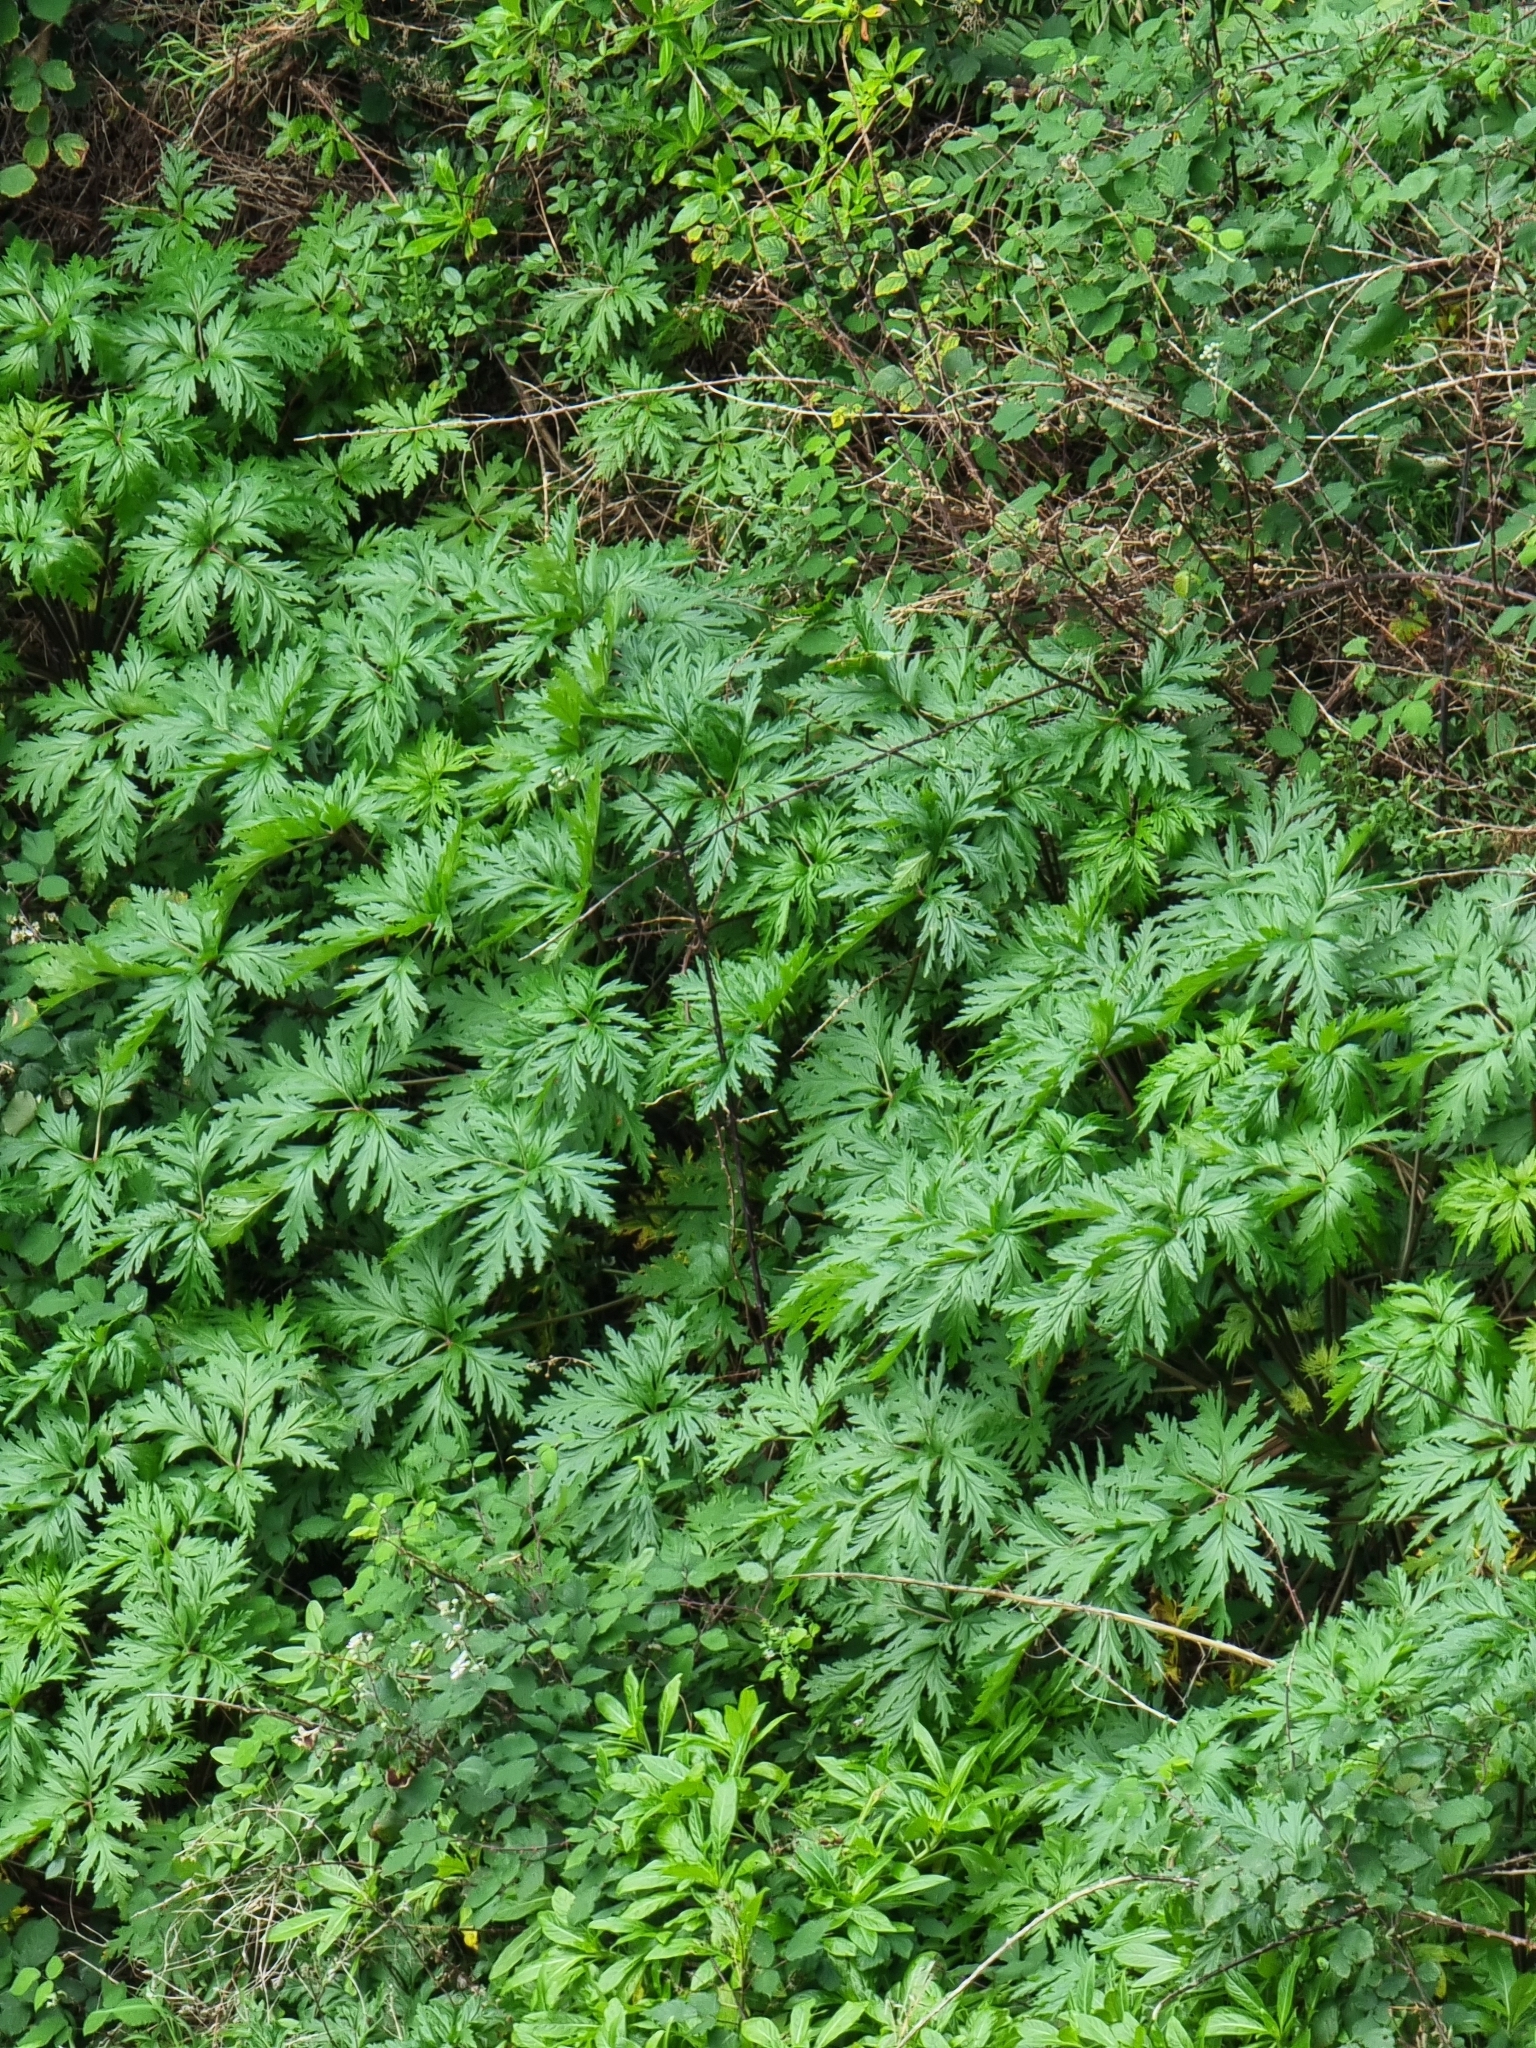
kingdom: Plantae
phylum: Tracheophyta
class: Magnoliopsida
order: Geraniales
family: Geraniaceae
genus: Geranium
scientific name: Geranium maderense
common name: Giant herb-robert
